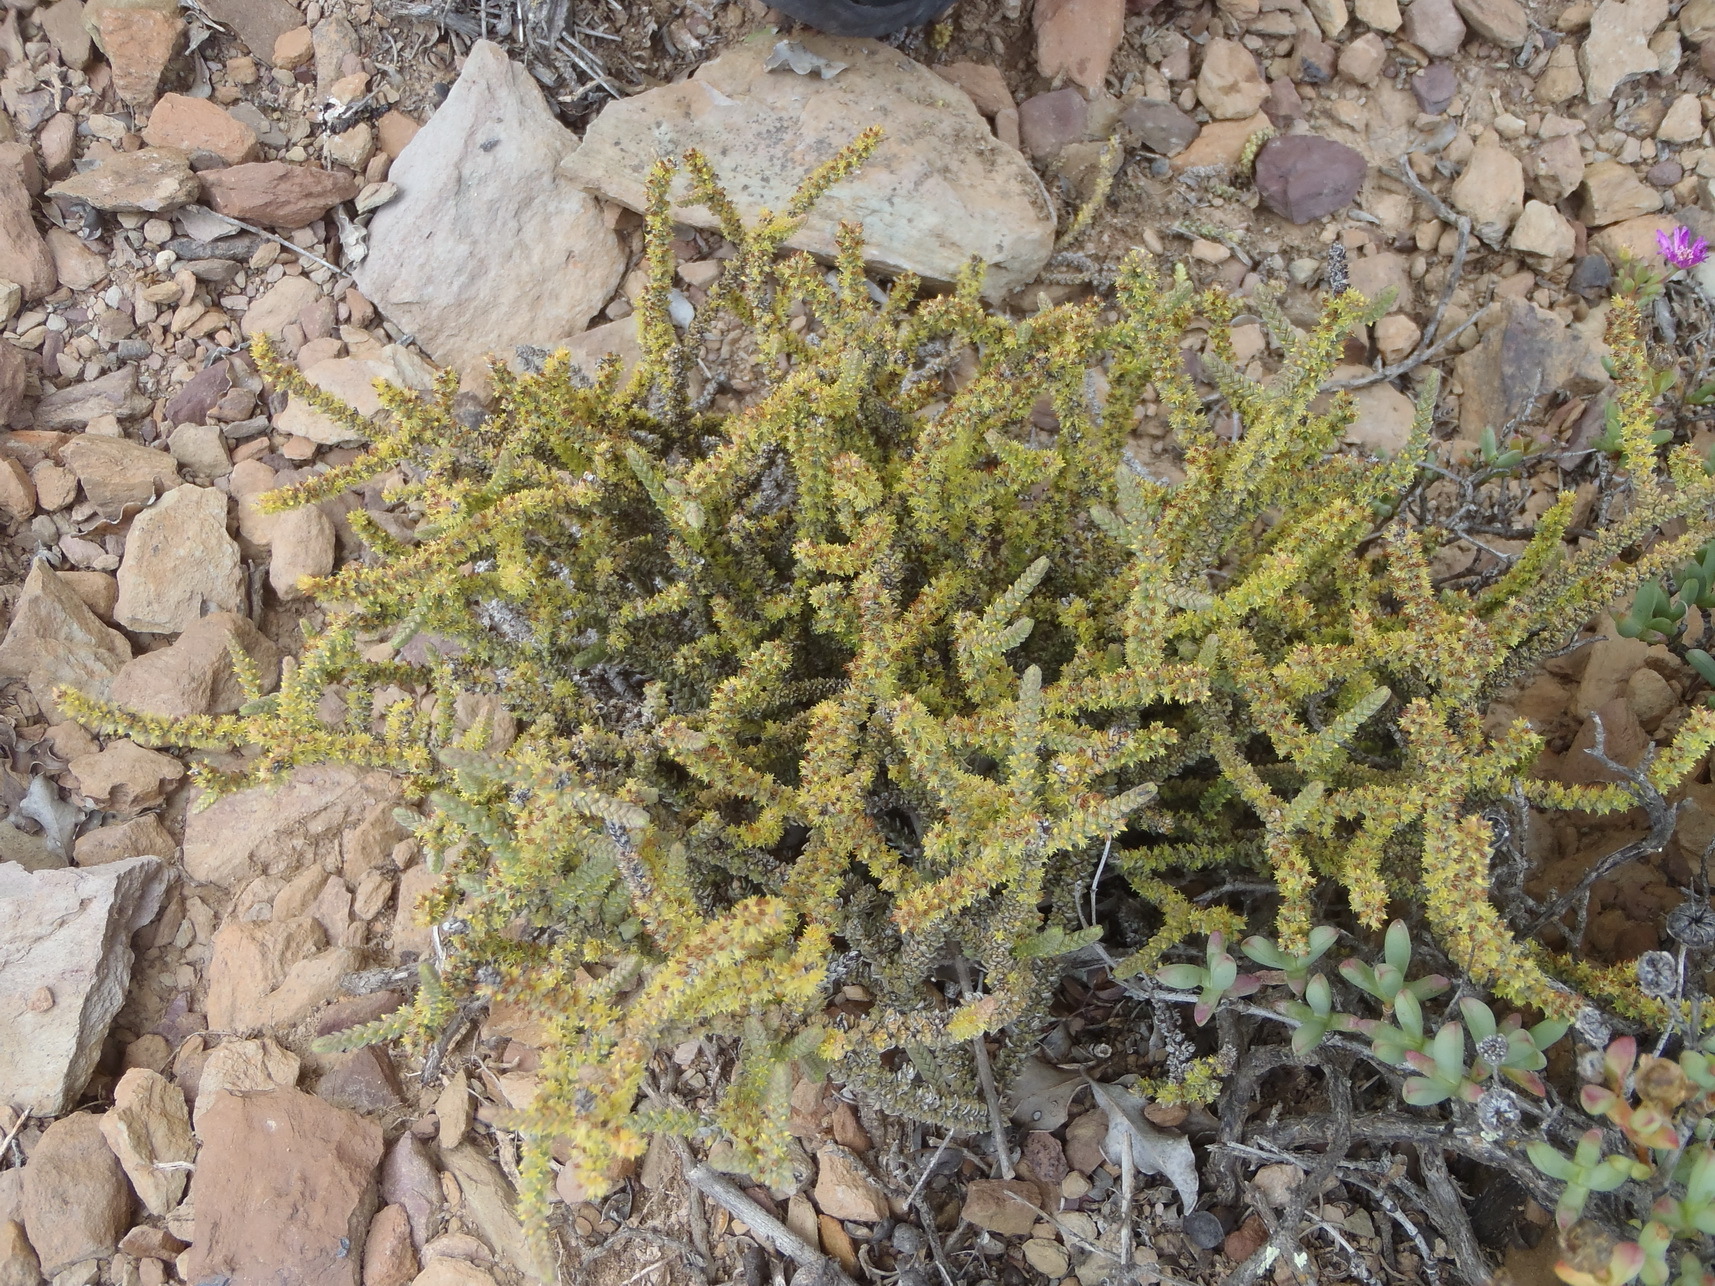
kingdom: Plantae
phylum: Tracheophyta
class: Magnoliopsida
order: Saxifragales
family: Crassulaceae
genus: Crassula
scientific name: Crassula muscosa
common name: Toy-cypress
